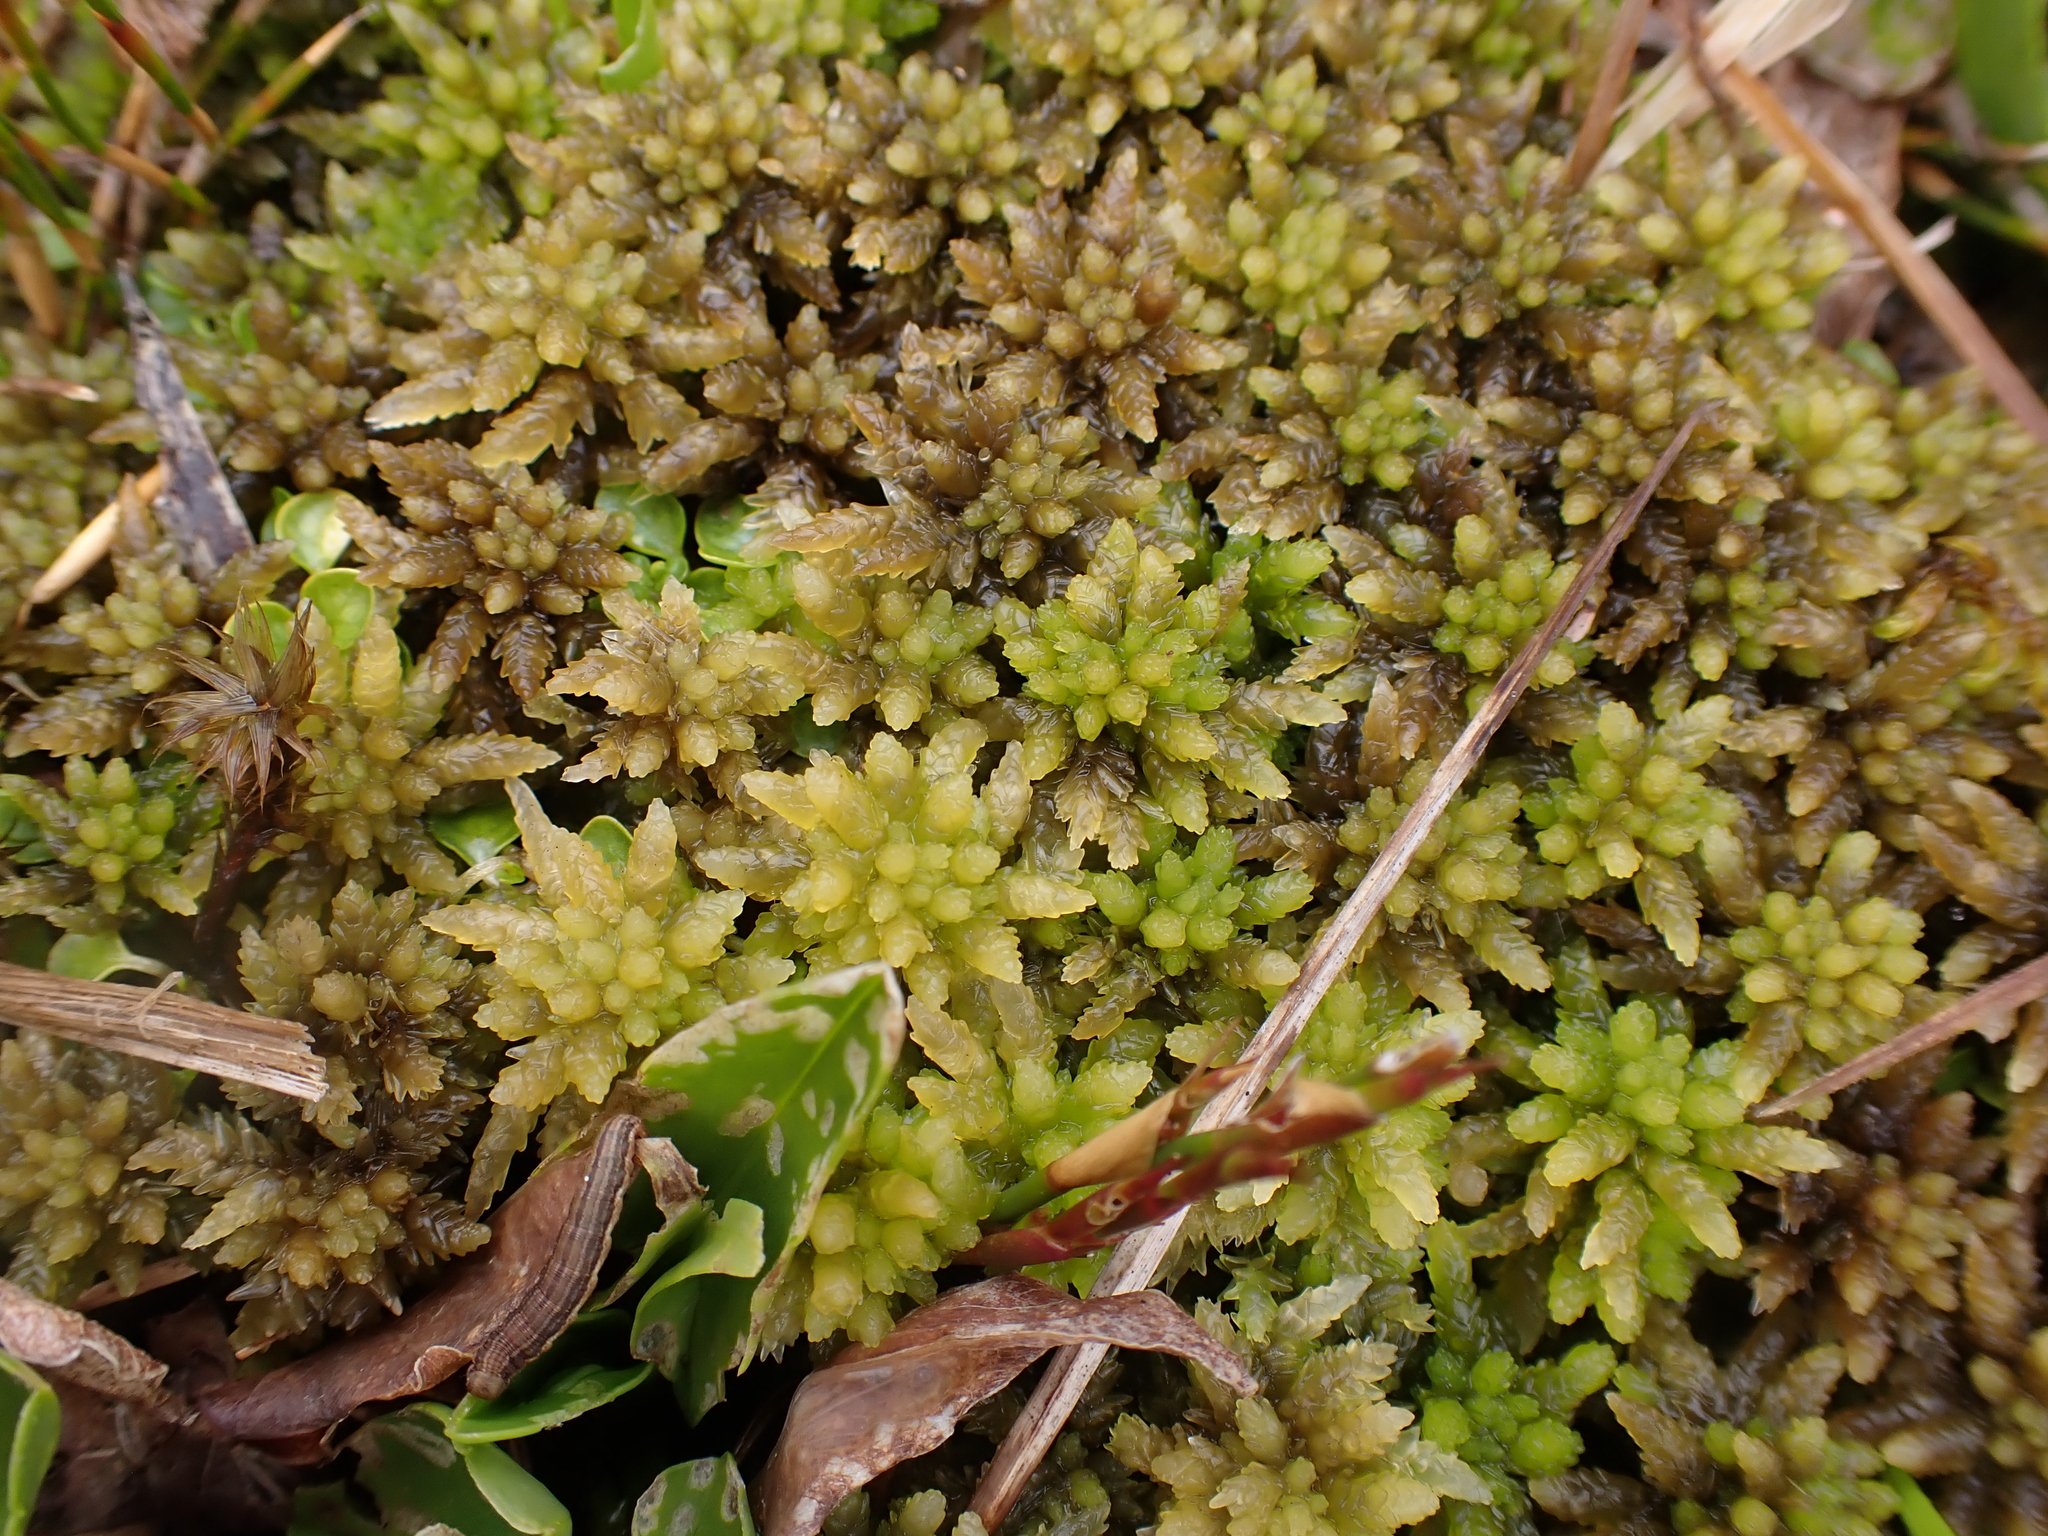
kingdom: Plantae
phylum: Bryophyta
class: Sphagnopsida
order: Sphagnales
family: Sphagnaceae
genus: Sphagnum
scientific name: Sphagnum cristatum
